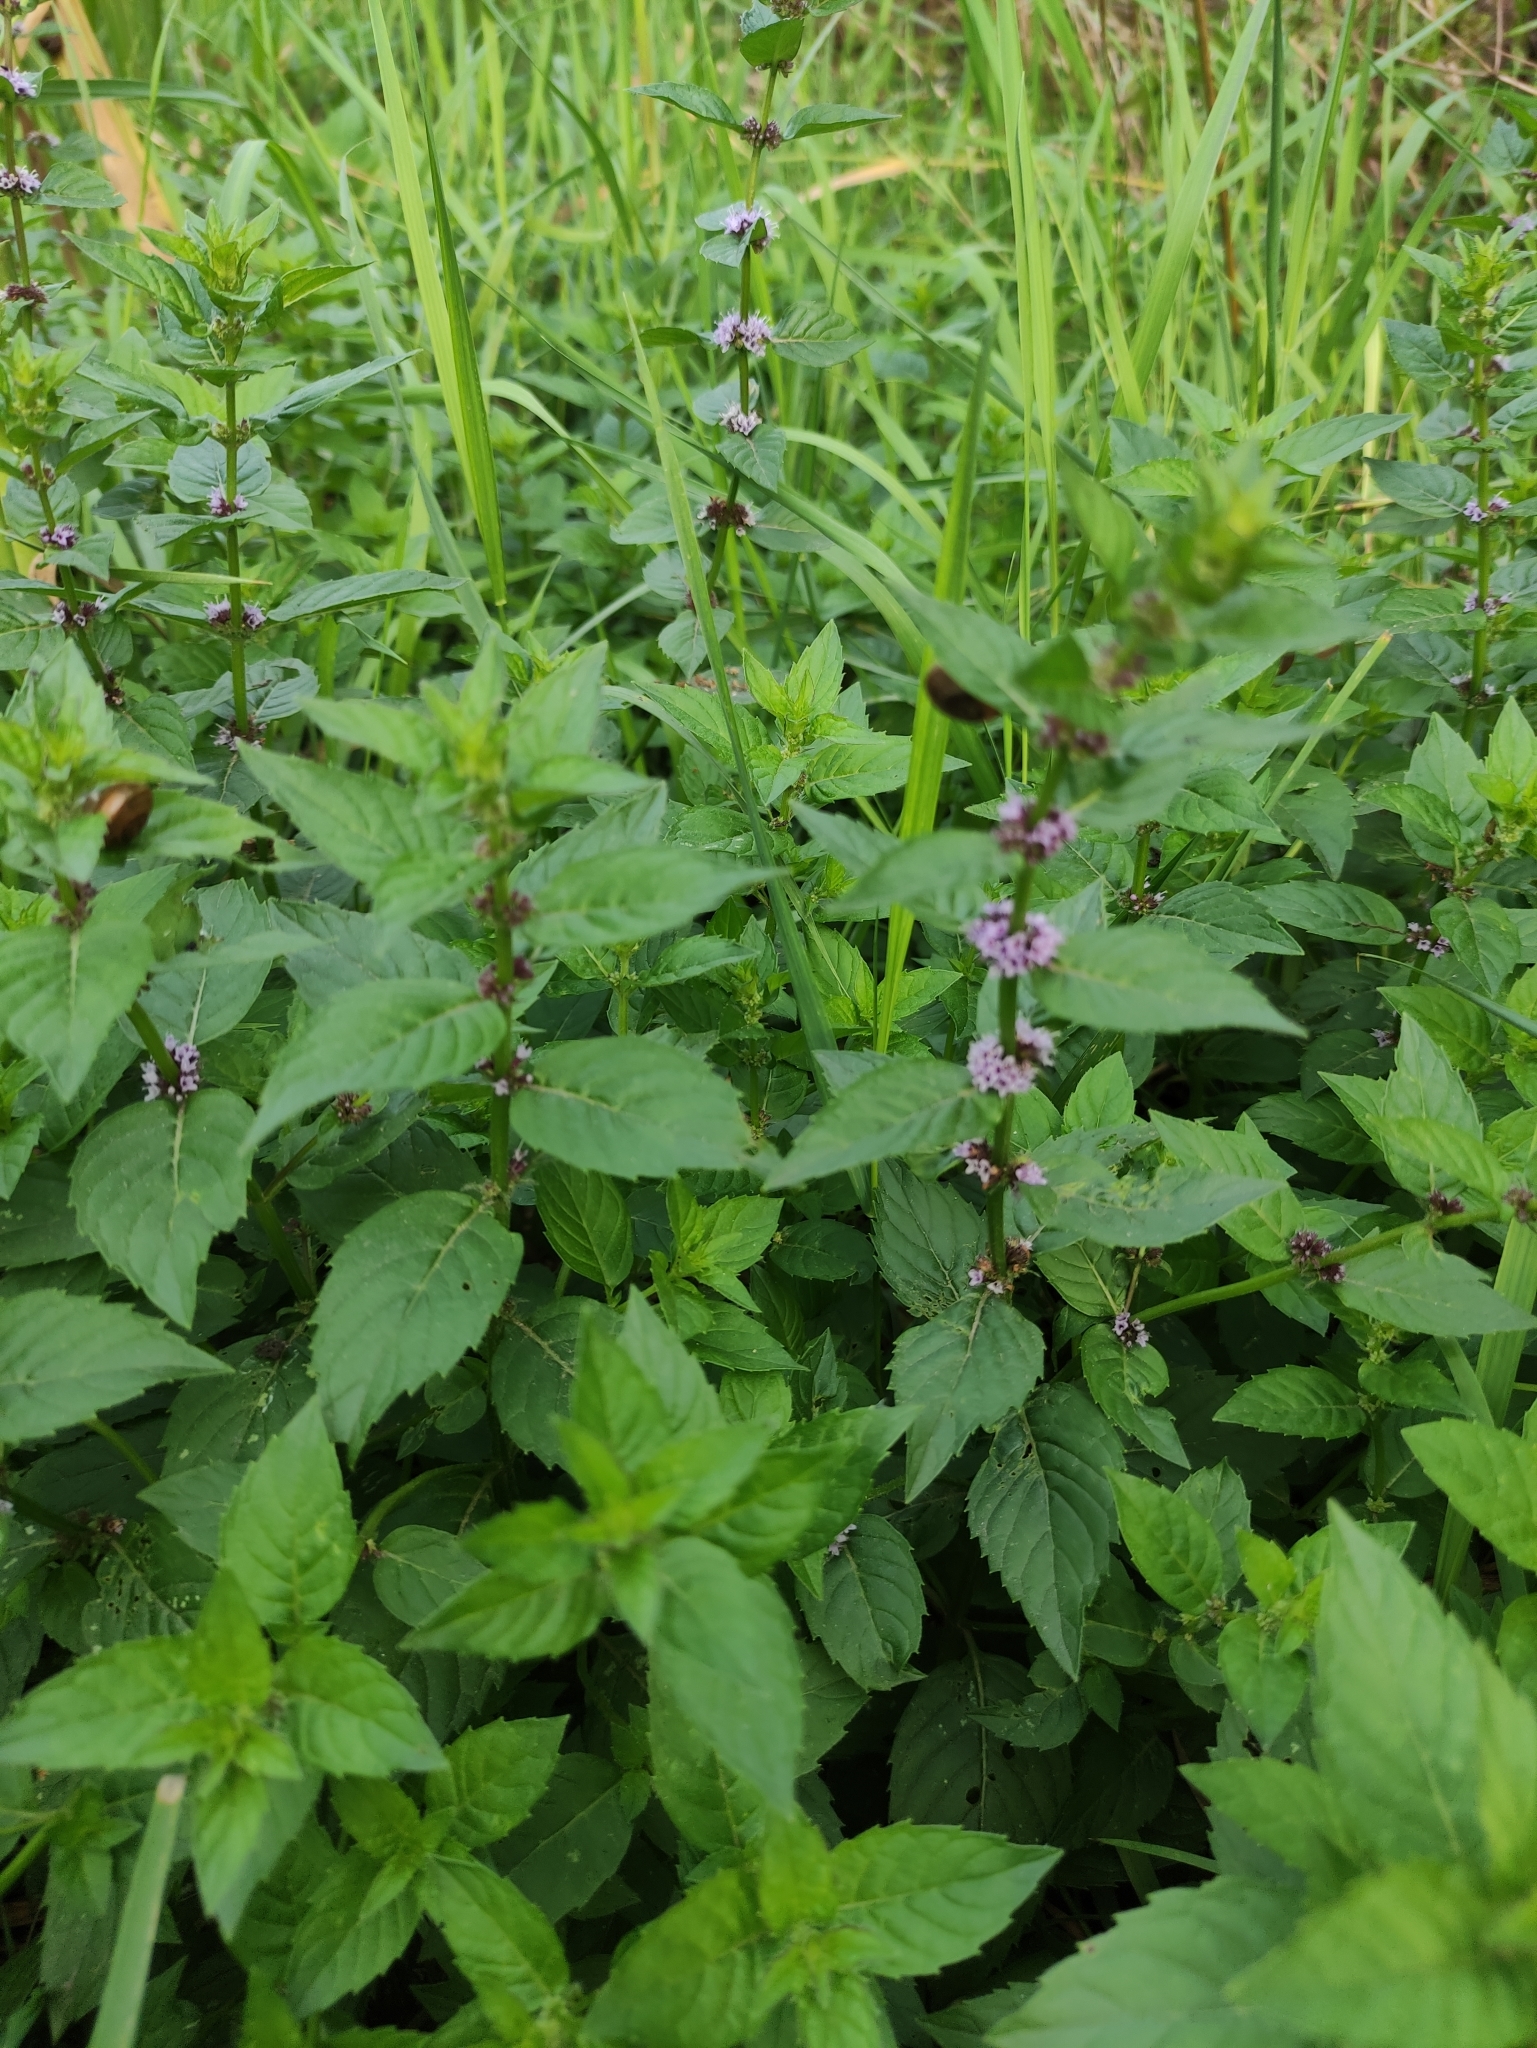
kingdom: Plantae
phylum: Tracheophyta
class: Magnoliopsida
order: Lamiales
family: Lamiaceae
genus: Mentha
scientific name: Mentha arvensis
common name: Corn mint
